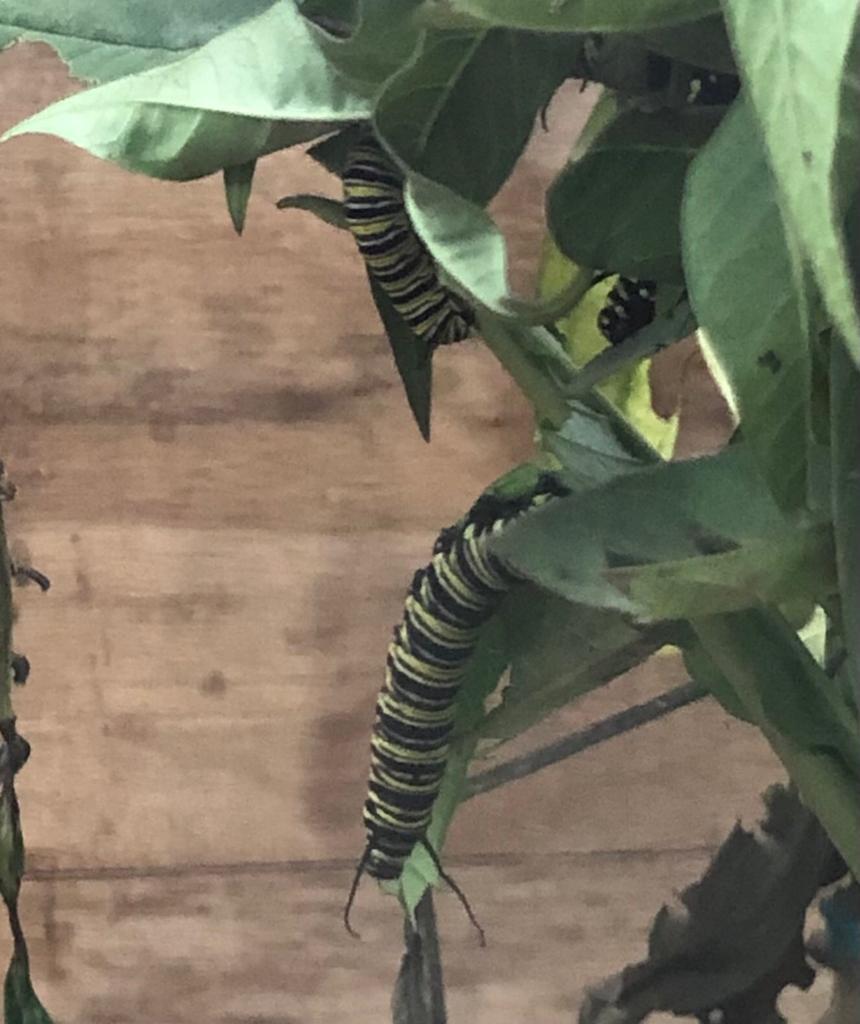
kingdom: Animalia
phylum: Arthropoda
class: Insecta
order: Lepidoptera
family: Nymphalidae
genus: Danaus
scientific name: Danaus plexippus
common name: Monarch
